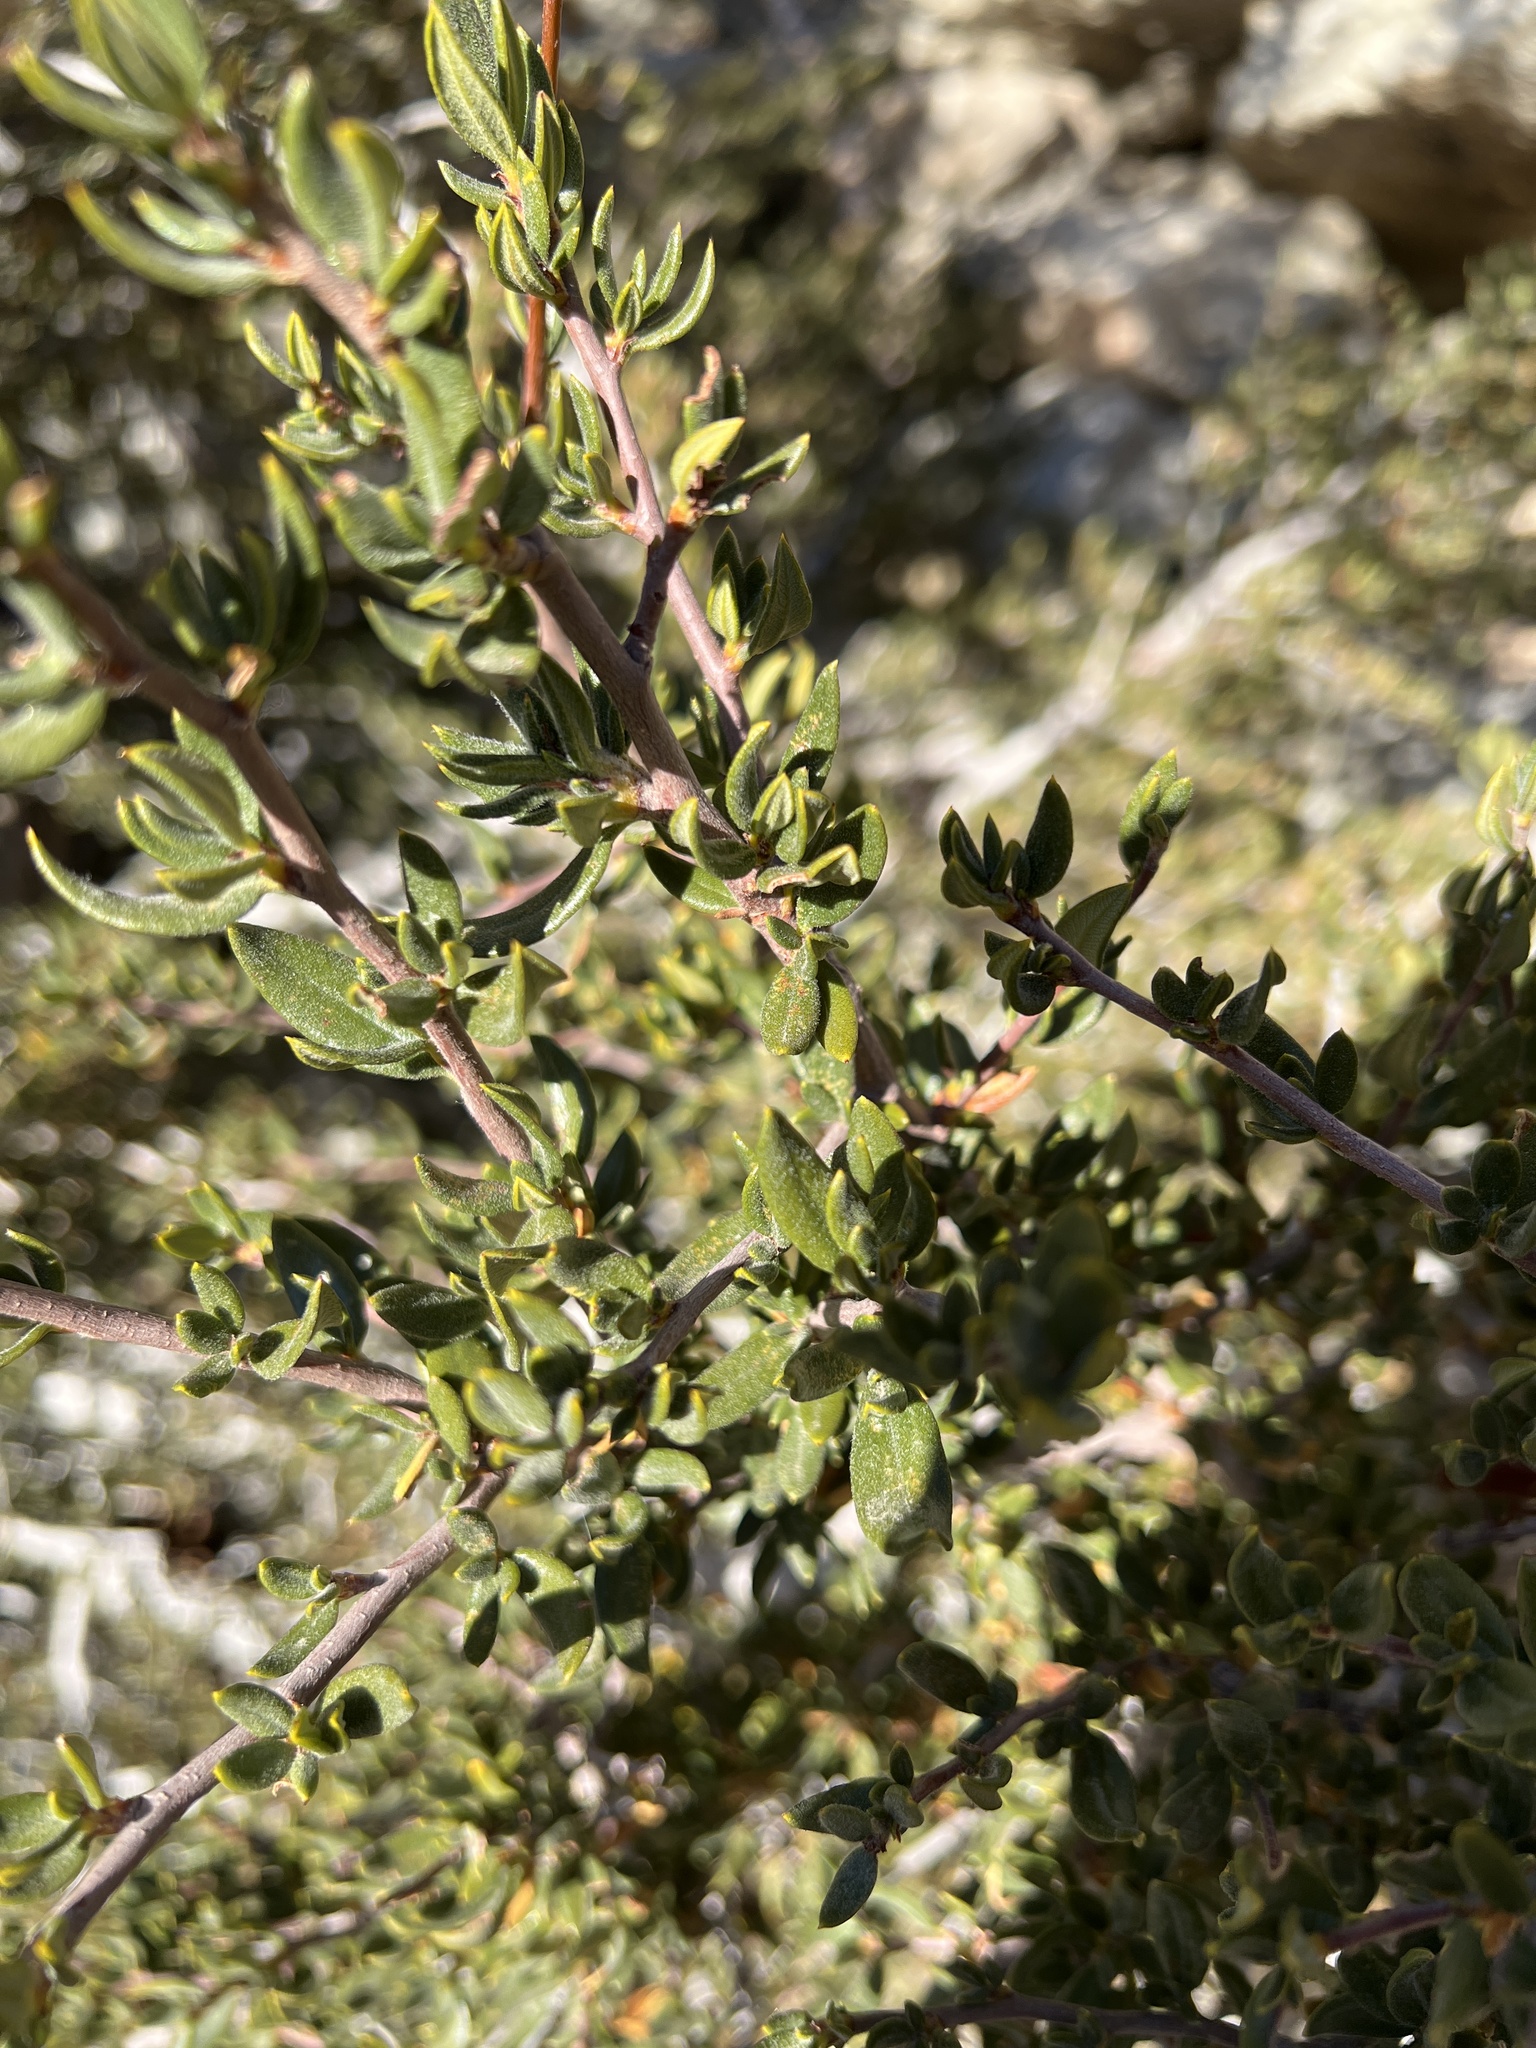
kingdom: Plantae
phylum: Tracheophyta
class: Magnoliopsida
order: Rosales
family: Rosaceae
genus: Cercocarpus
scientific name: Cercocarpus ledifolius
